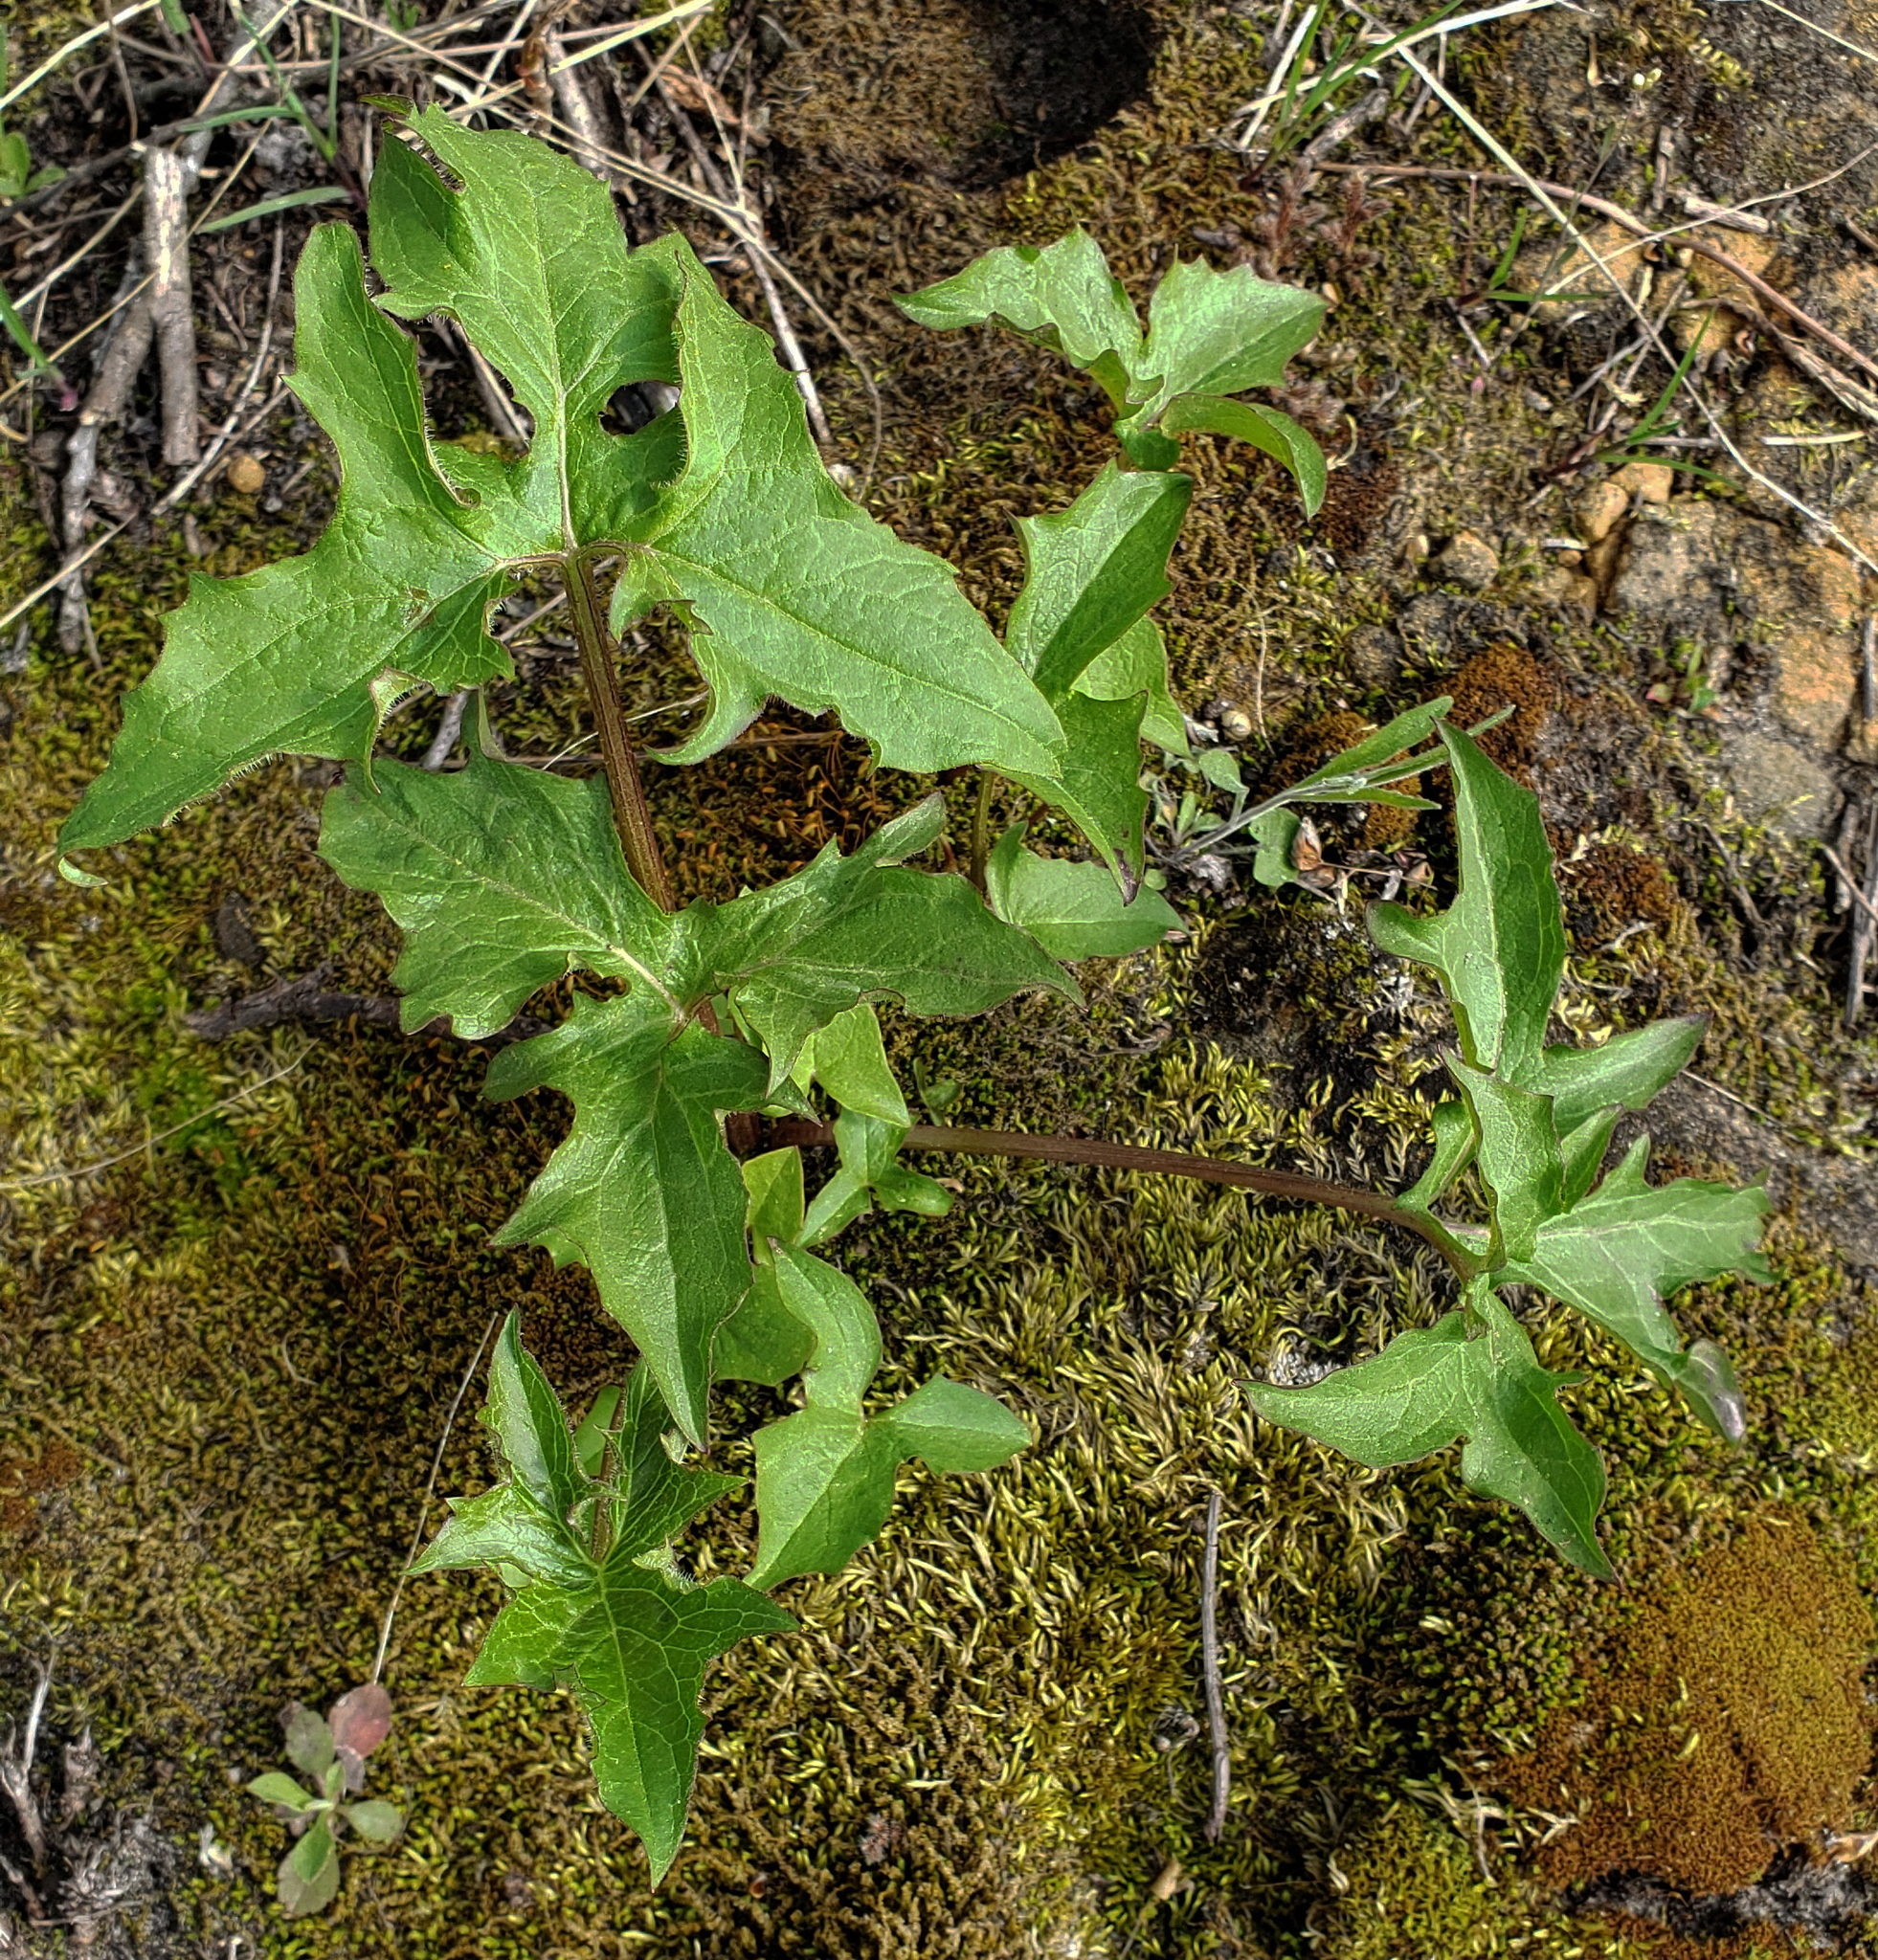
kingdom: Plantae
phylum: Tracheophyta
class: Magnoliopsida
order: Asterales
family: Asteraceae
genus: Nabalus
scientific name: Nabalus albus
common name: White rattlesnakeroot
